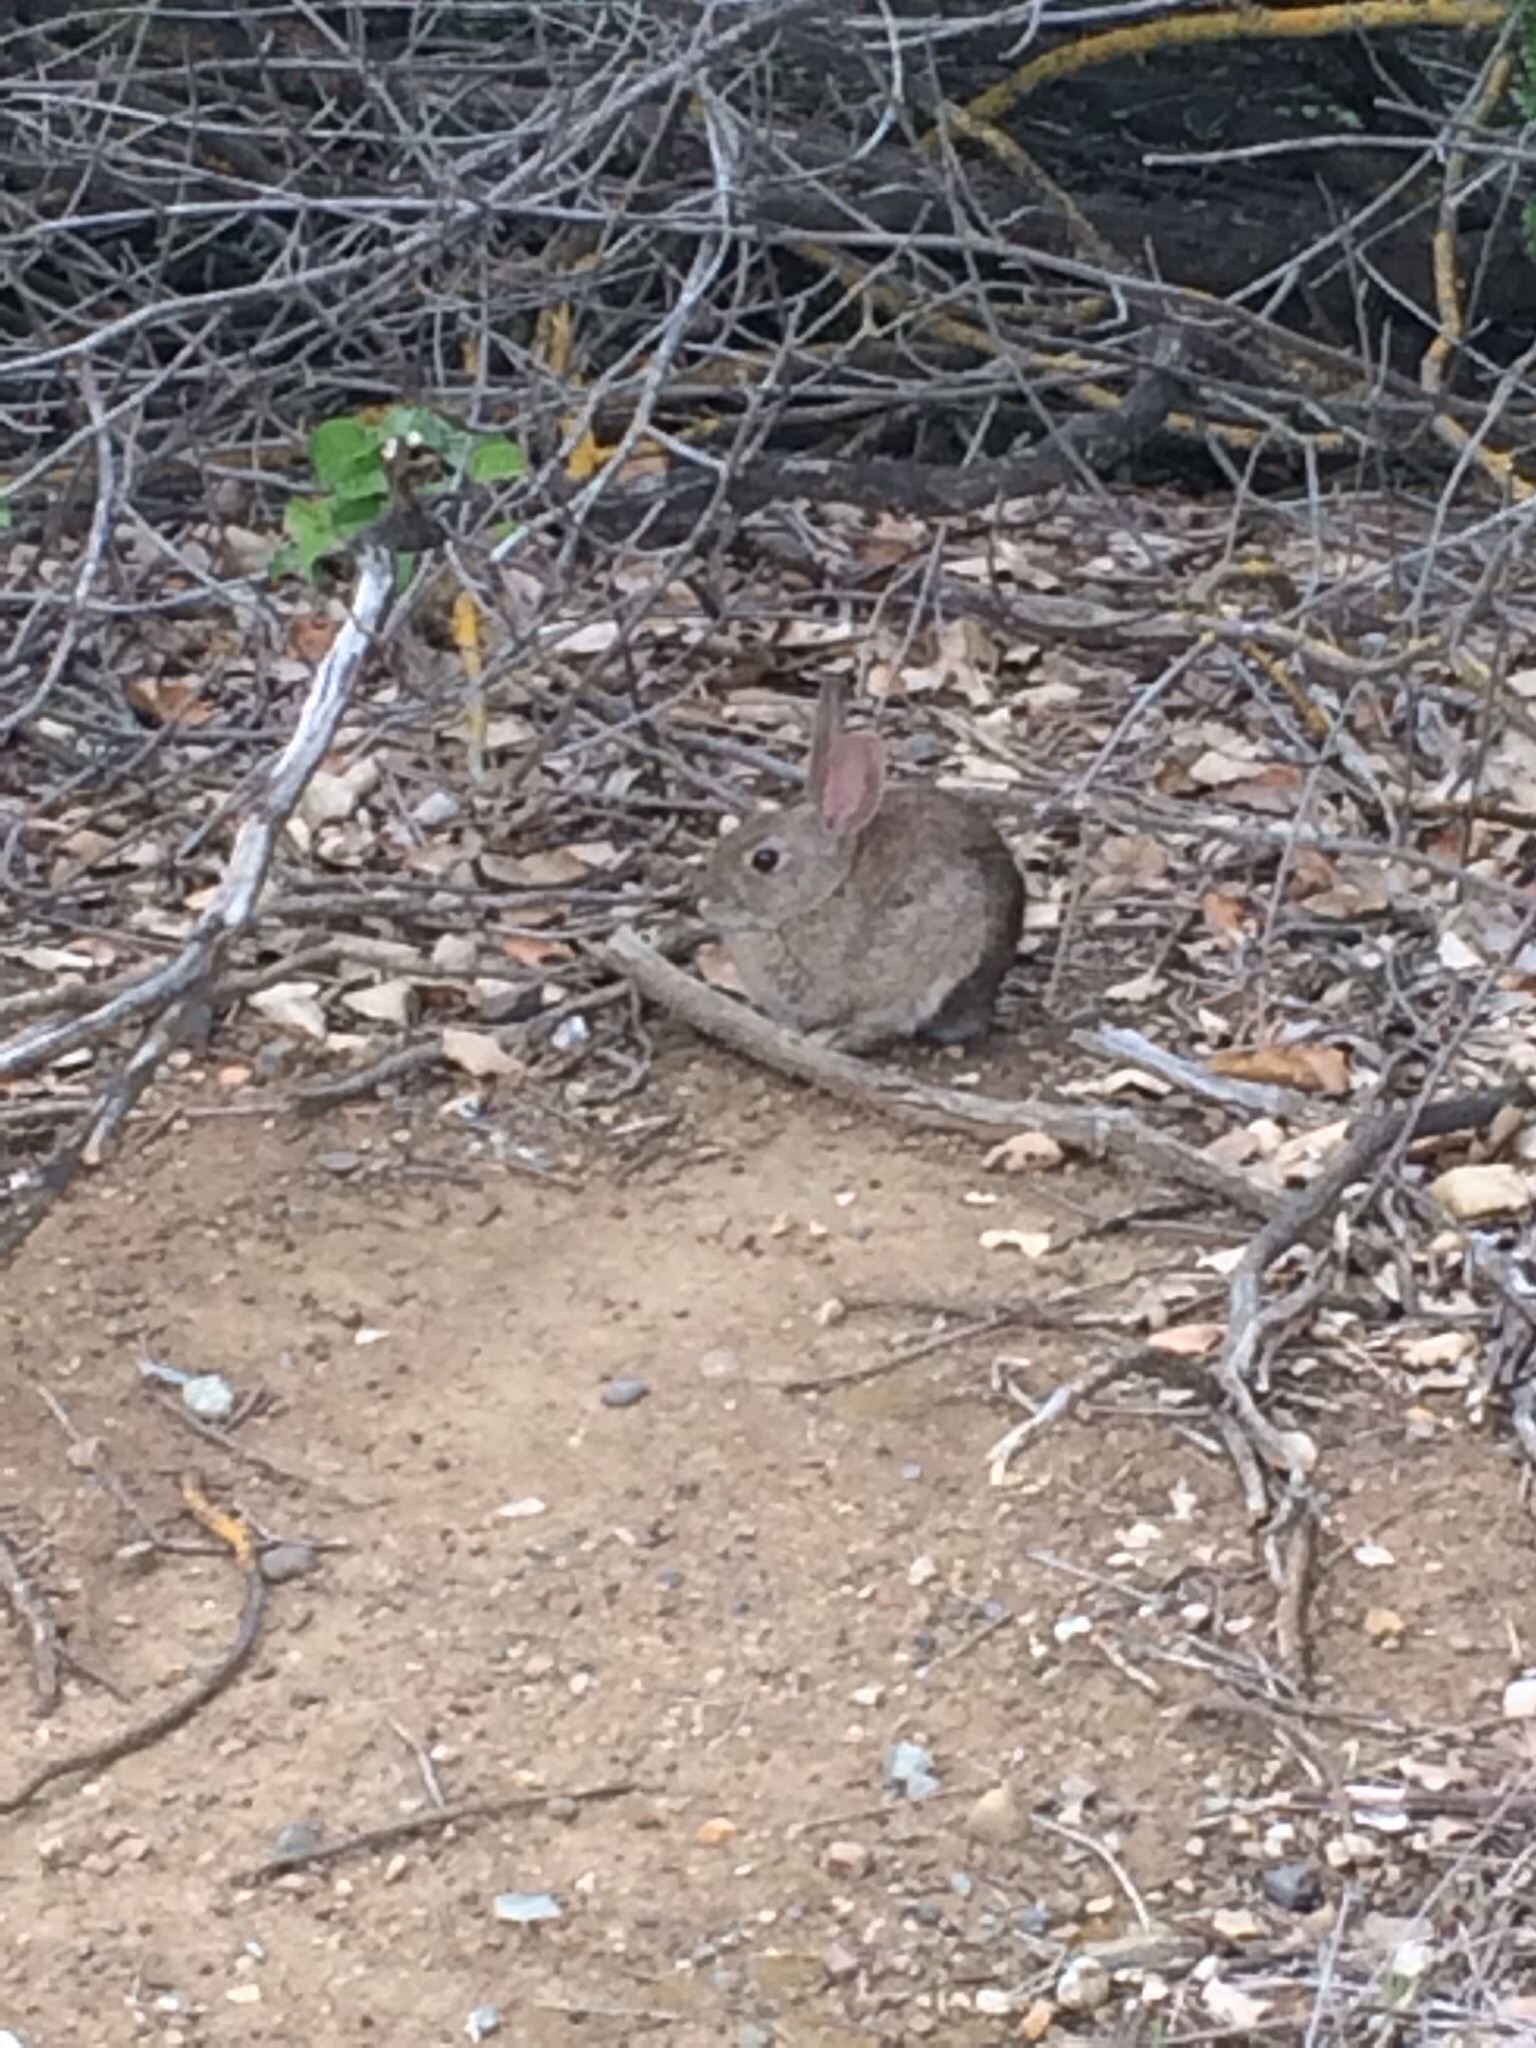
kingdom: Animalia
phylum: Chordata
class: Mammalia
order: Lagomorpha
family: Leporidae
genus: Sylvilagus
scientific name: Sylvilagus bachmani
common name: Brush rabbit
